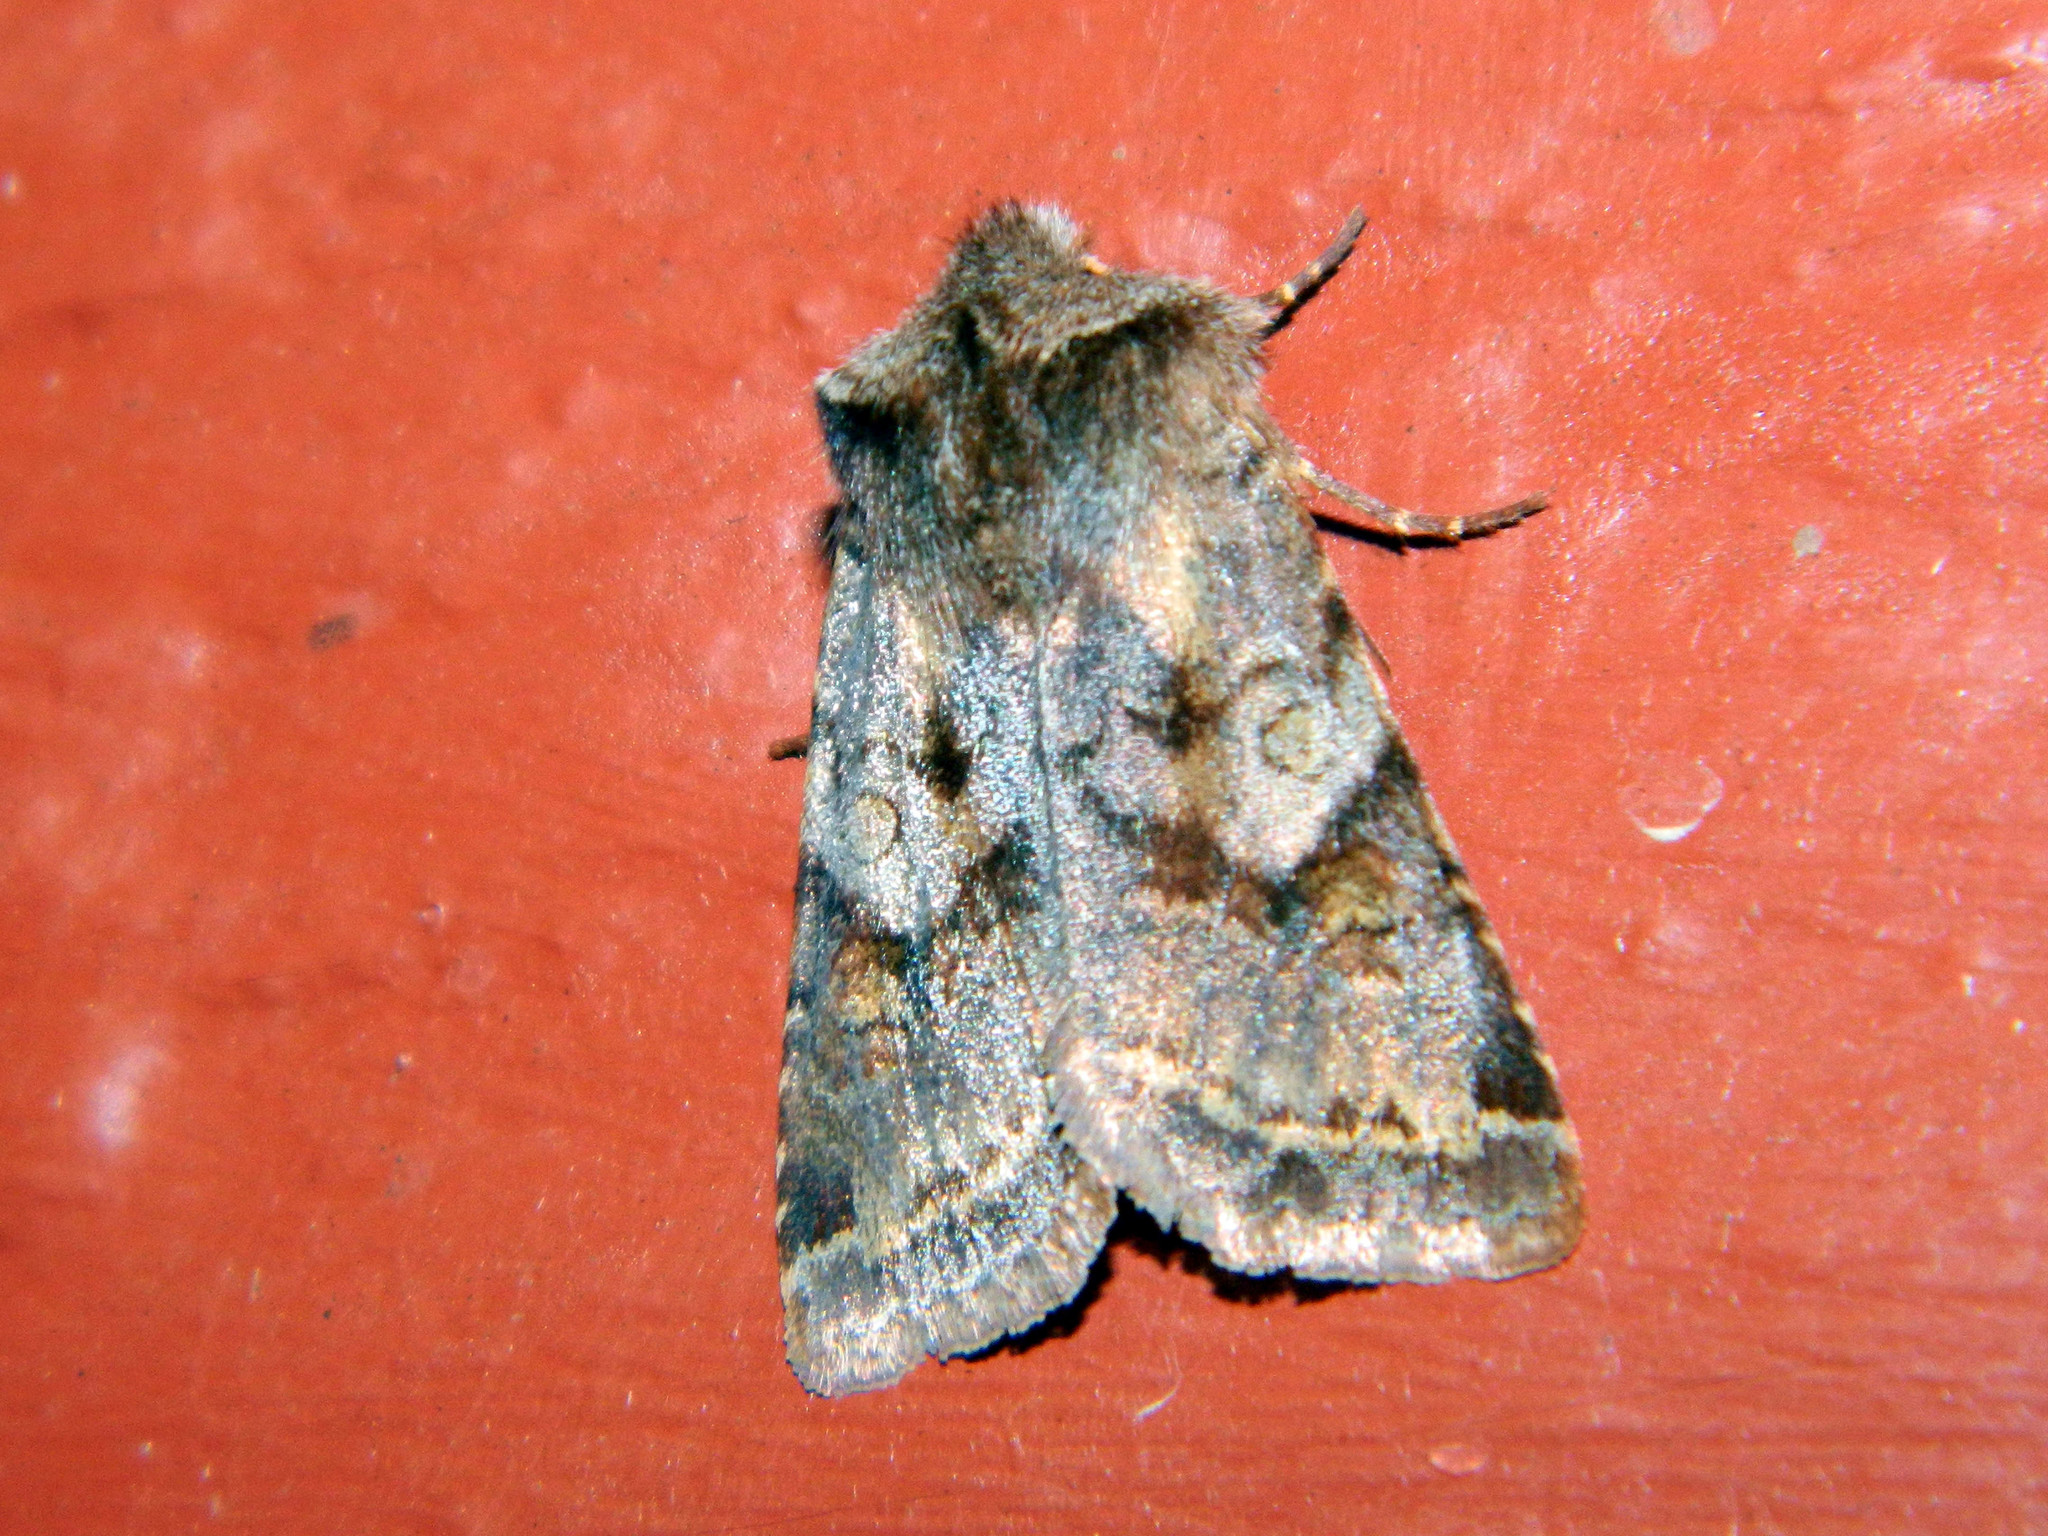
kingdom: Animalia
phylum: Arthropoda
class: Insecta
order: Lepidoptera
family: Noctuidae
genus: Cerastis
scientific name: Cerastis salicarum
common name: Willow dart
